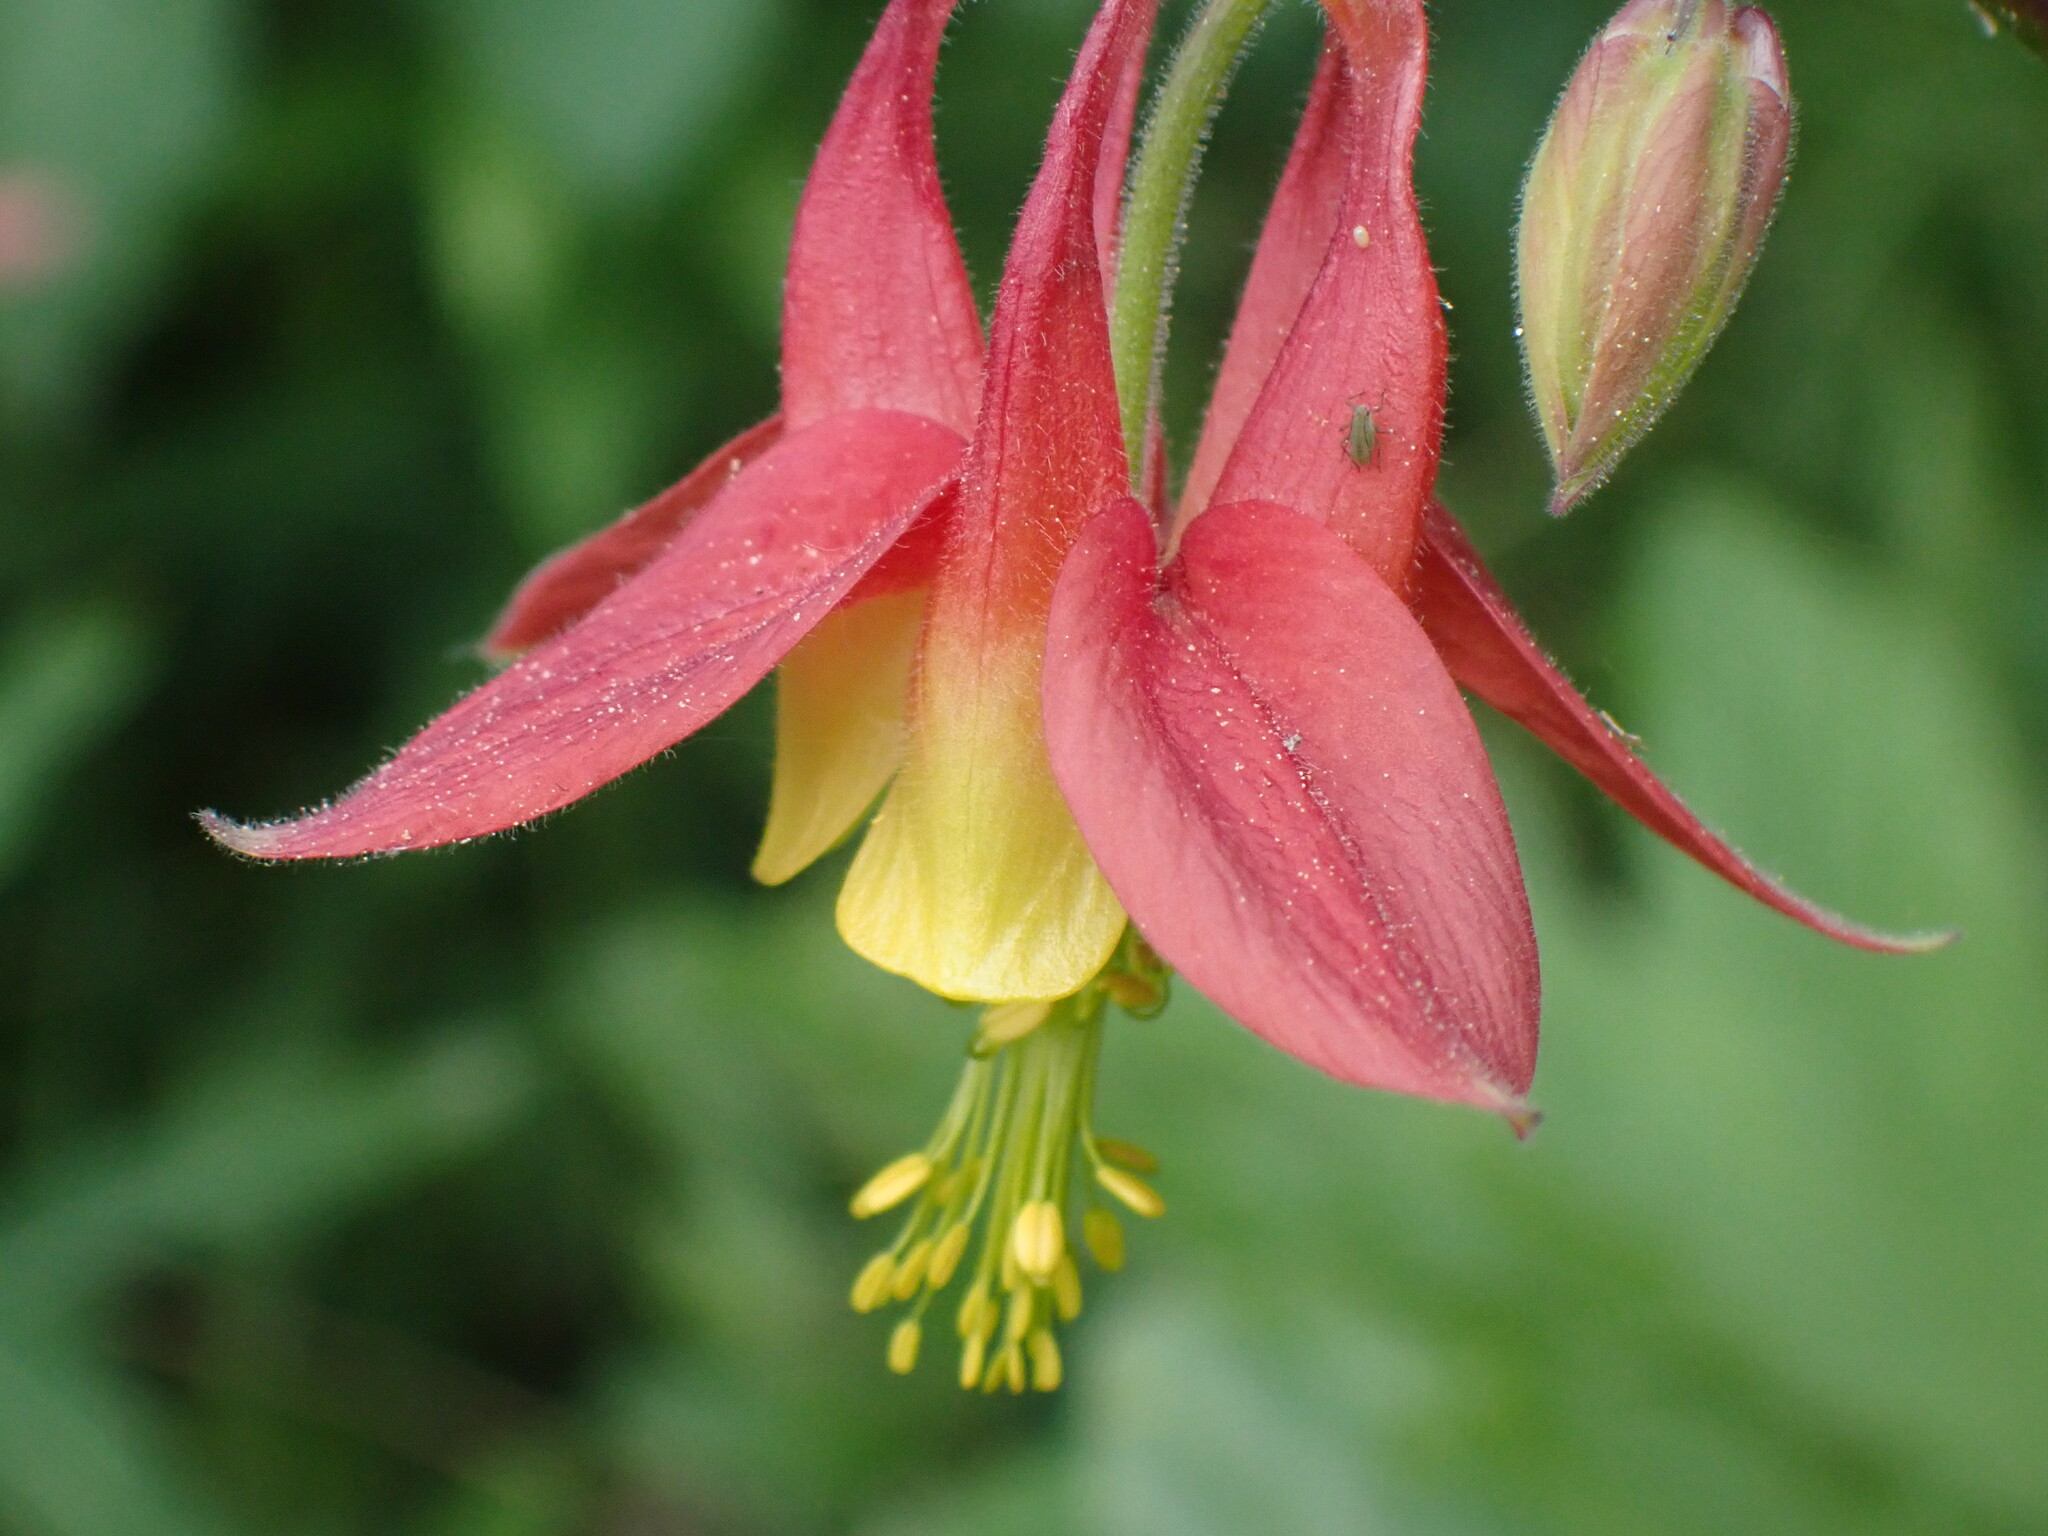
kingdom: Plantae
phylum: Tracheophyta
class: Magnoliopsida
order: Ranunculales
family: Ranunculaceae
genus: Aquilegia
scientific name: Aquilegia formosa
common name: Sitka columbine
